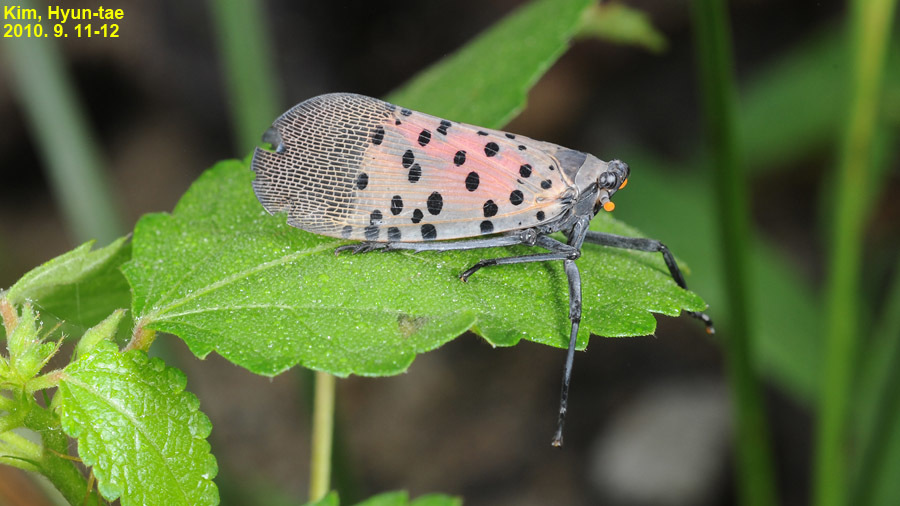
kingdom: Animalia
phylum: Arthropoda
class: Insecta
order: Hemiptera
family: Fulgoridae
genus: Lycorma
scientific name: Lycorma delicatula
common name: Spotted lanternfly
